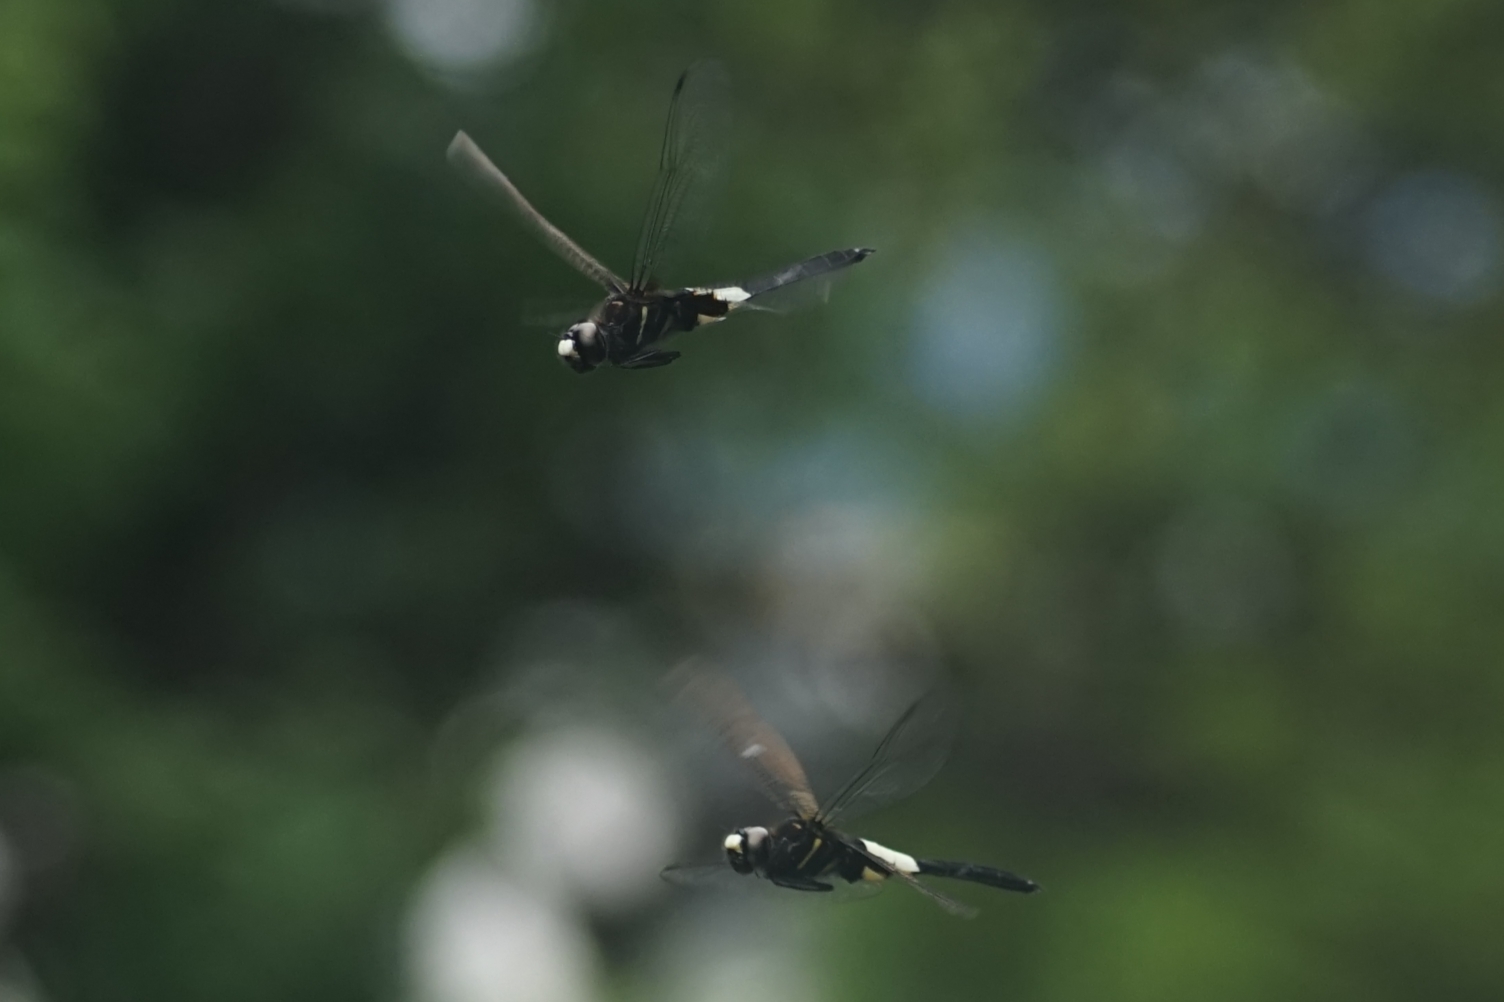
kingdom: Animalia
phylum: Arthropoda
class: Insecta
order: Odonata
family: Libellulidae
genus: Pseudothemis
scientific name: Pseudothemis zonata
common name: Pied skimmer
